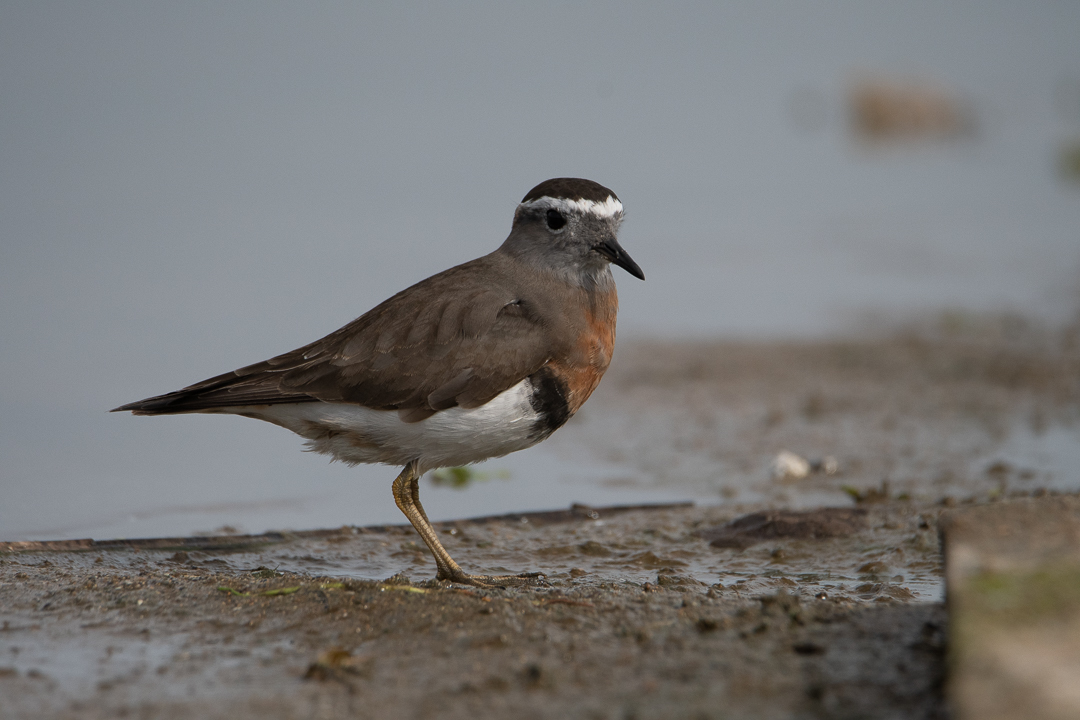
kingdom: Animalia
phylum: Chordata
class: Aves
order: Charadriiformes
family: Charadriidae
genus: Charadrius
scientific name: Charadrius modestus
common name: Rufous-chested plover
